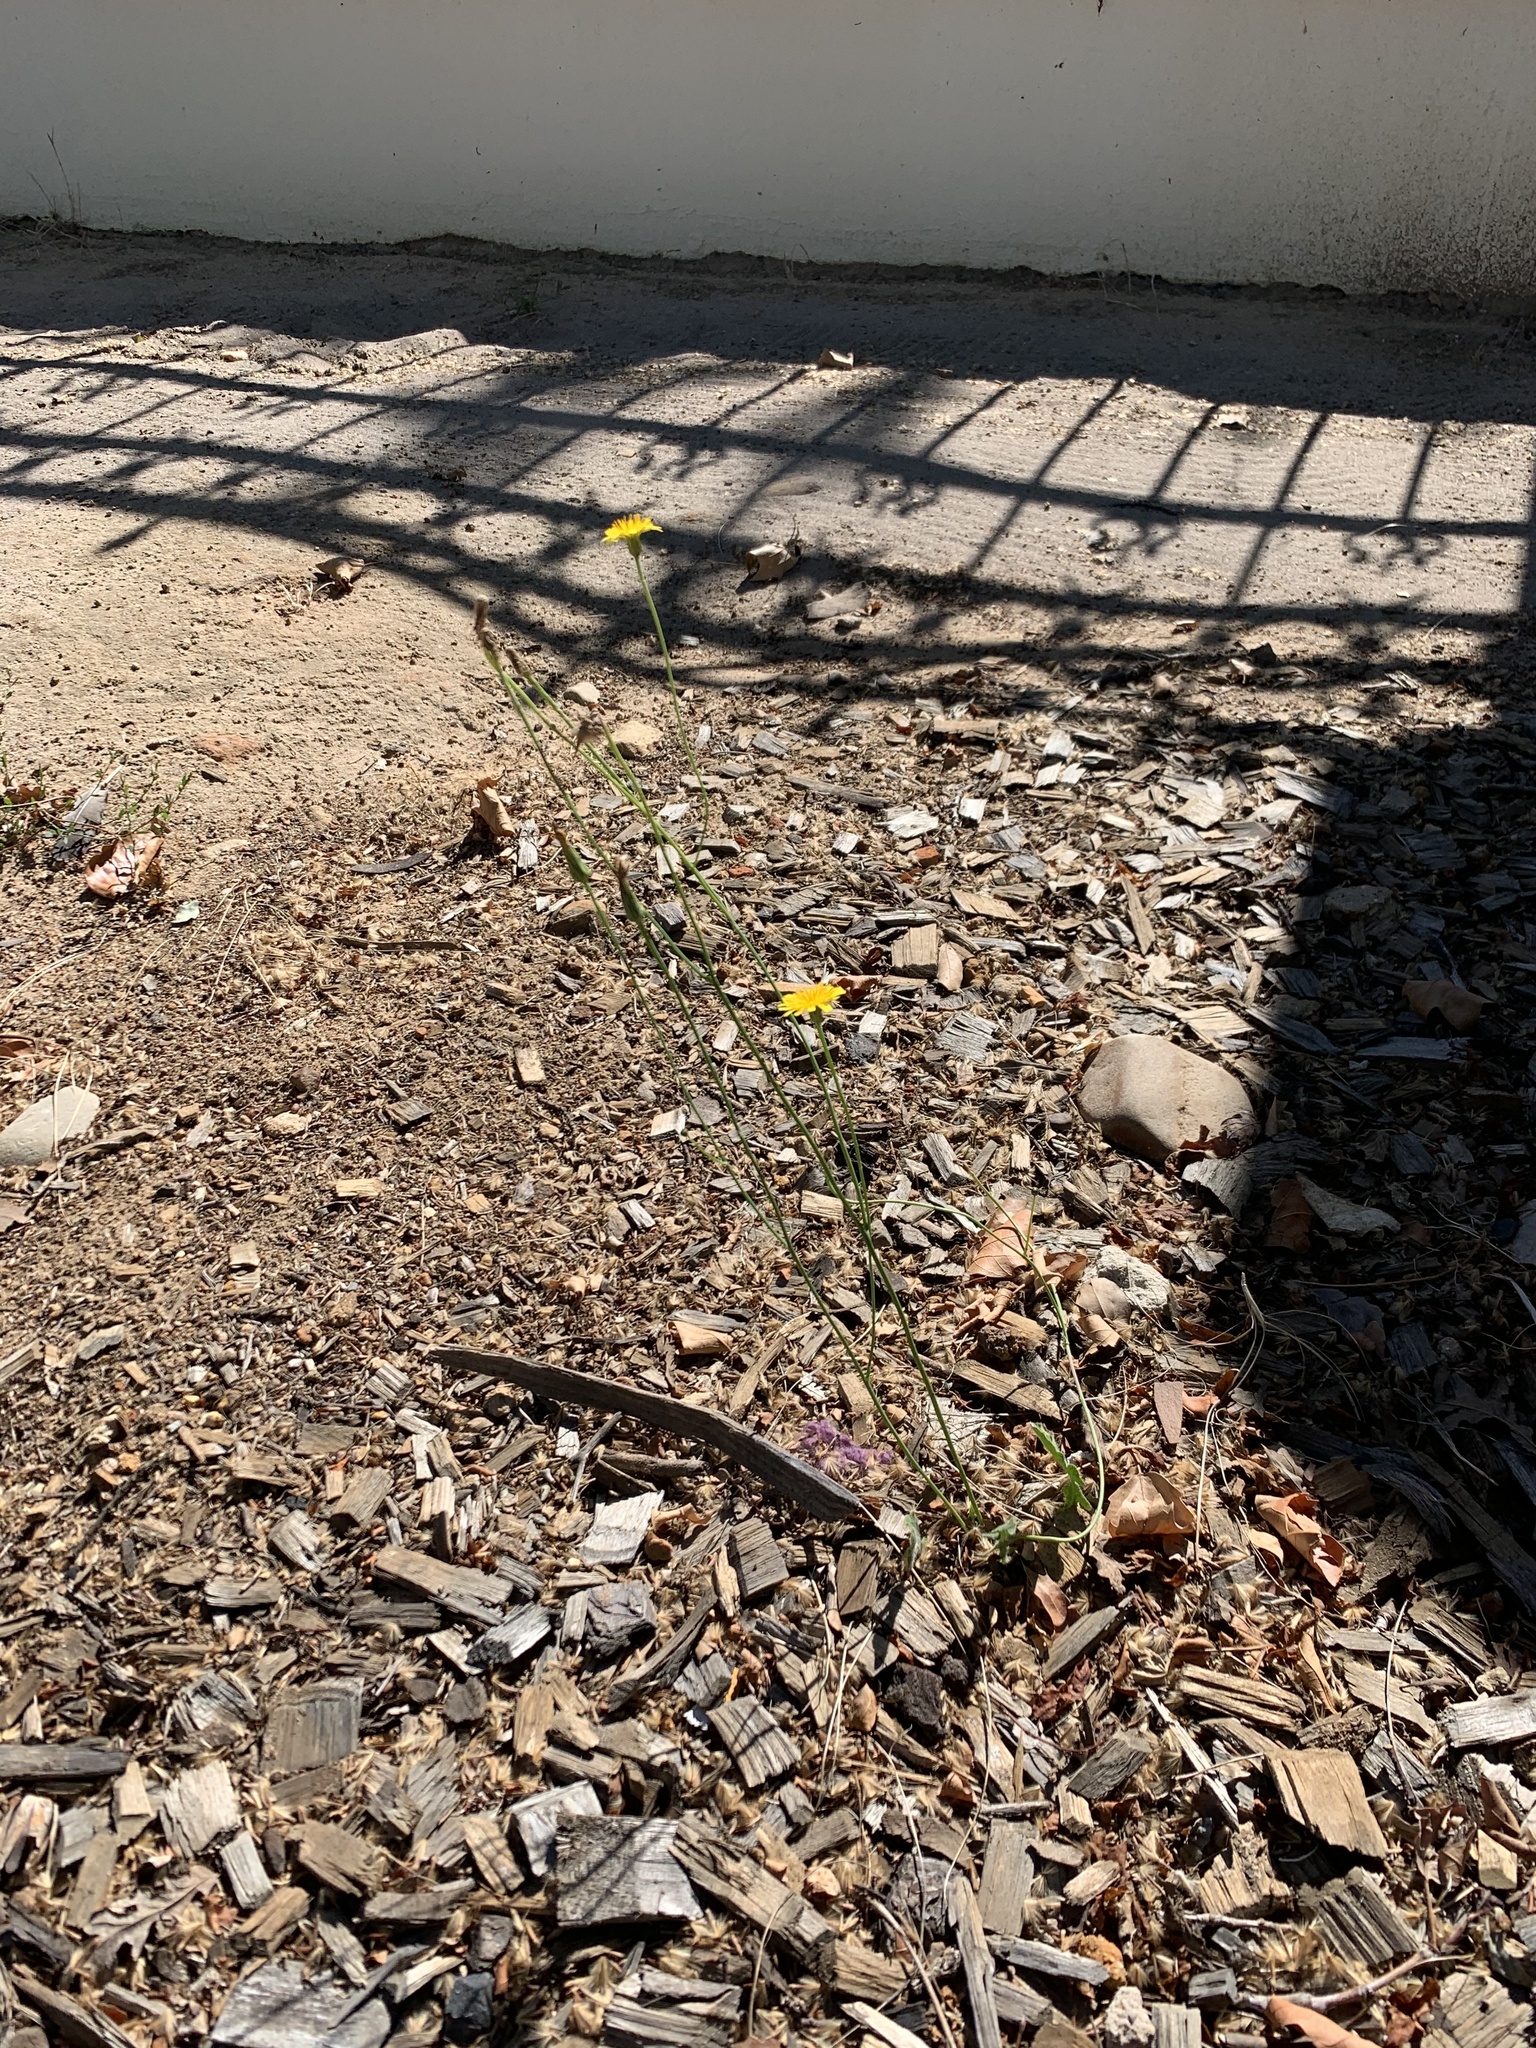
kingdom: Plantae
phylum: Tracheophyta
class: Magnoliopsida
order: Asterales
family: Asteraceae
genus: Hypochaeris
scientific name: Hypochaeris radicata
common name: Flatweed
